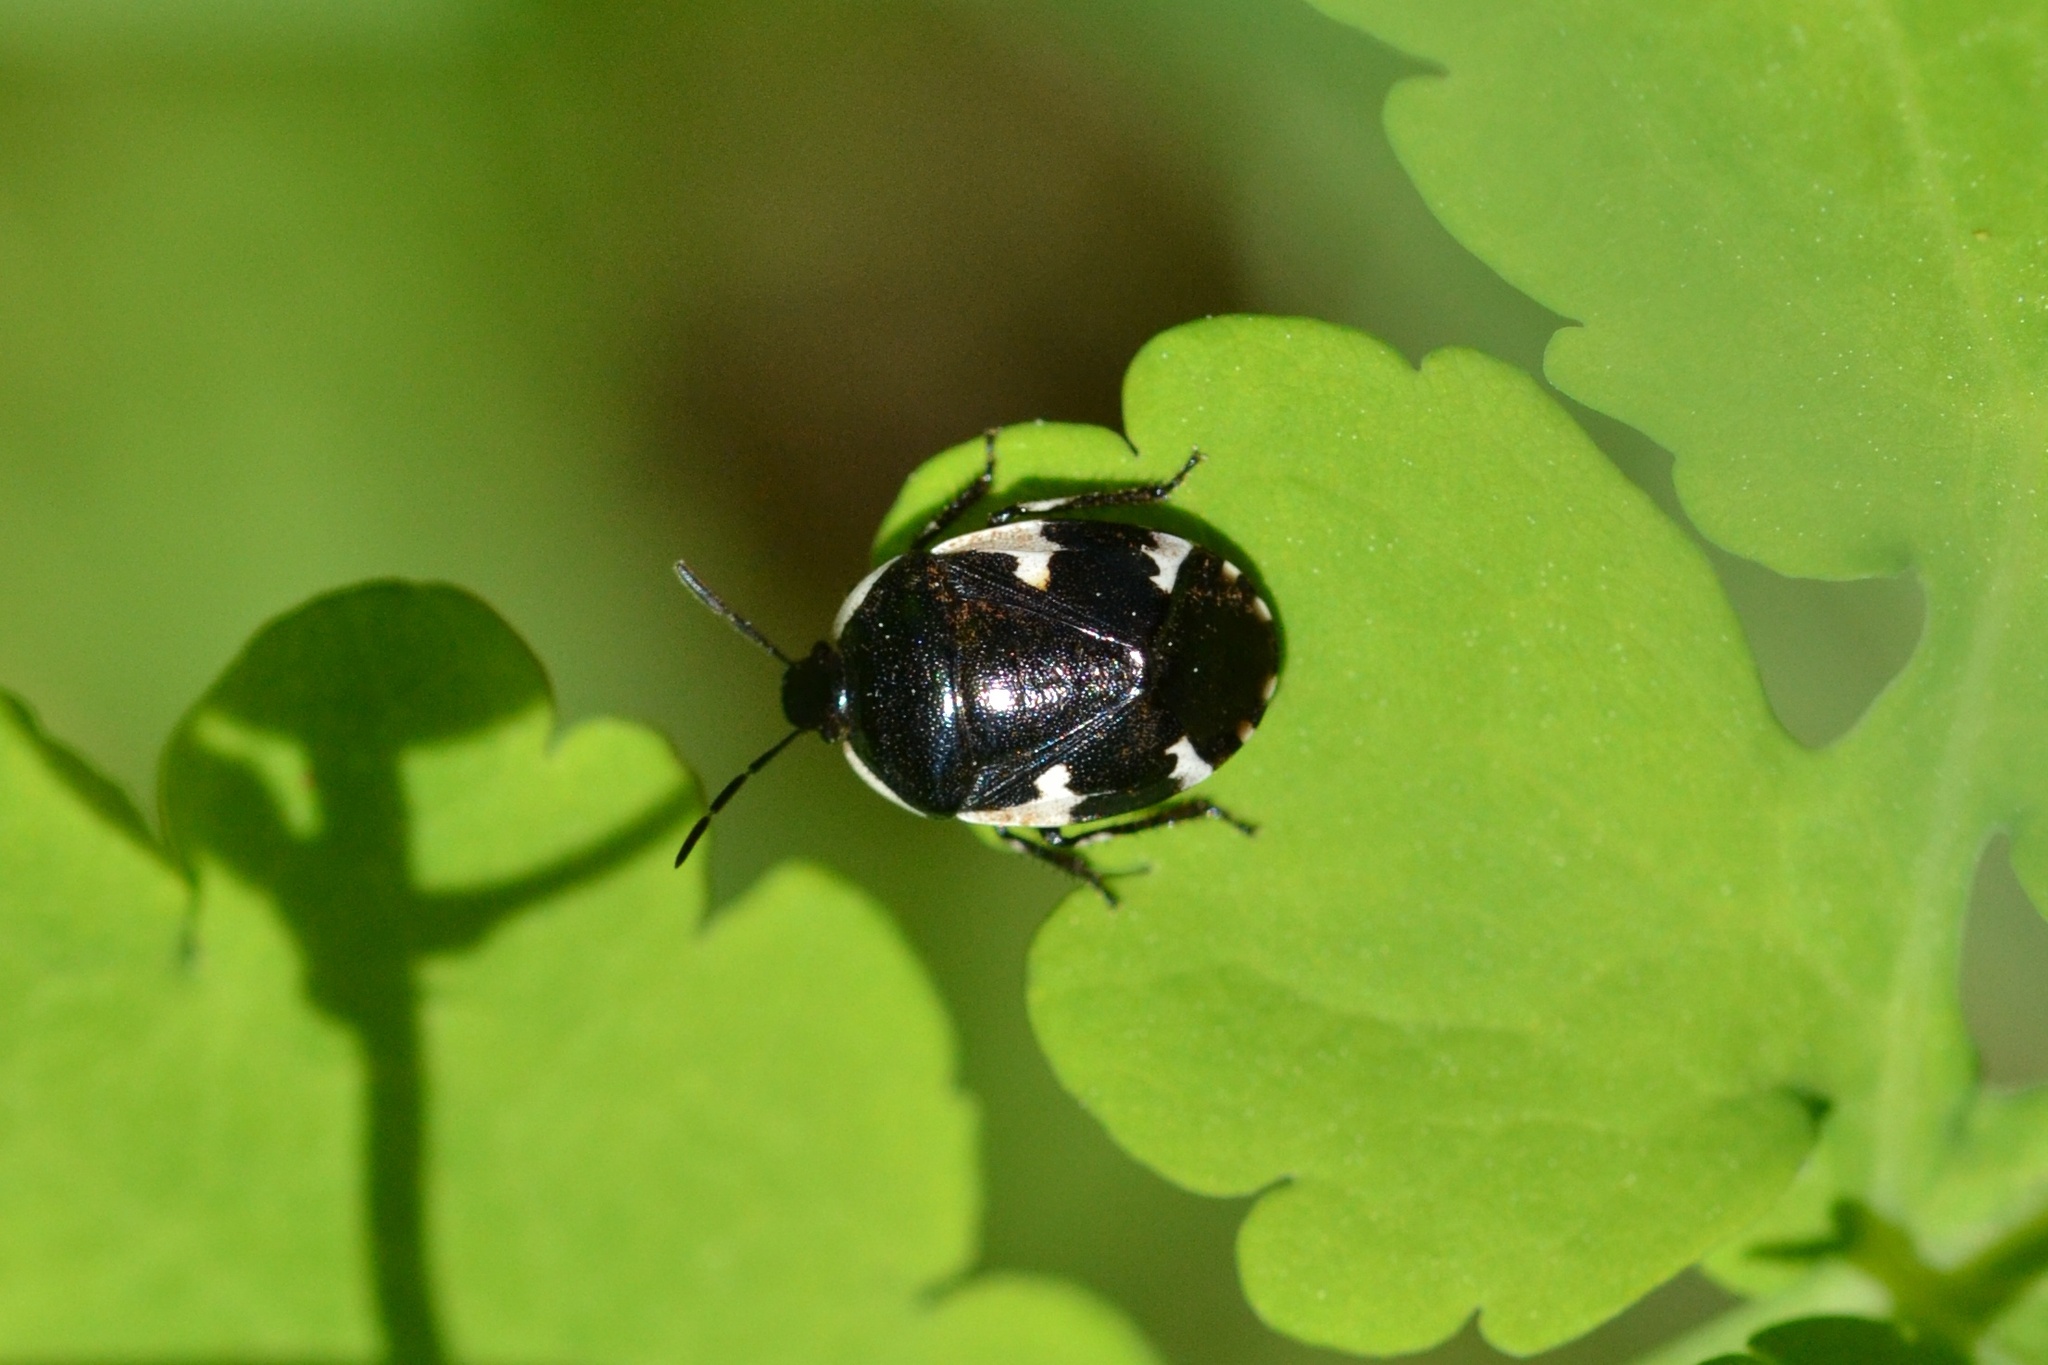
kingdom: Animalia
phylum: Arthropoda
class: Insecta
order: Hemiptera
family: Cydnidae
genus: Tritomegas
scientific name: Tritomegas sexmaculatus
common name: Rambur's pied shieldbug
